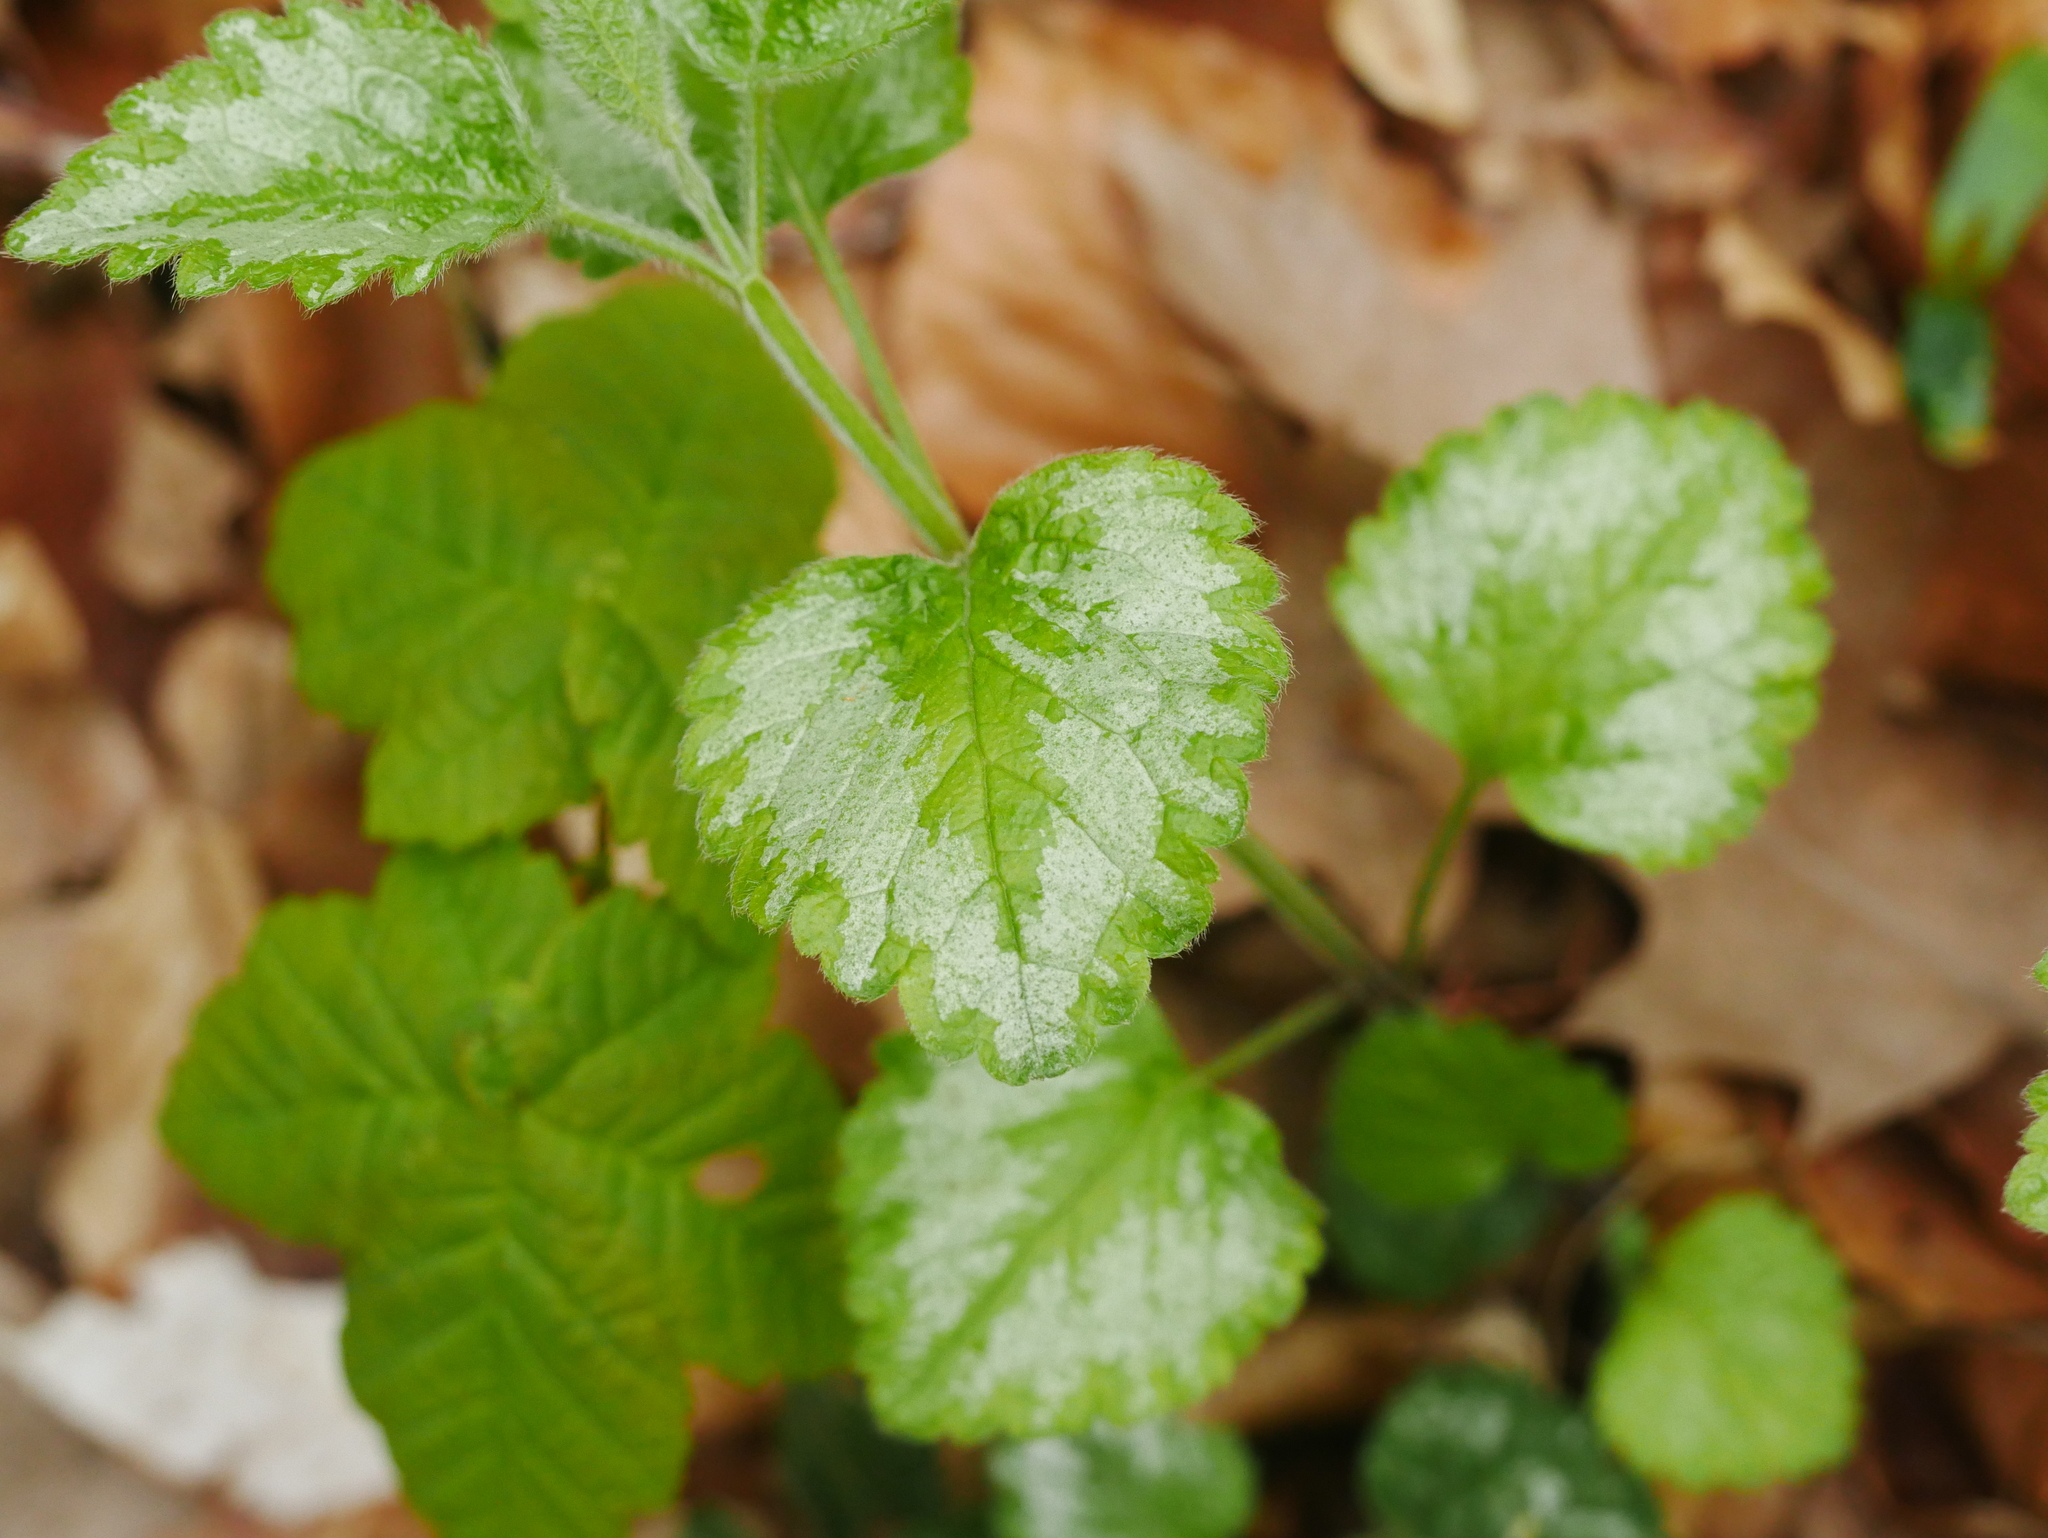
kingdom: Plantae
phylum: Tracheophyta
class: Magnoliopsida
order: Lamiales
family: Lamiaceae
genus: Lamium
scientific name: Lamium galeobdolon
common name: Yellow archangel
